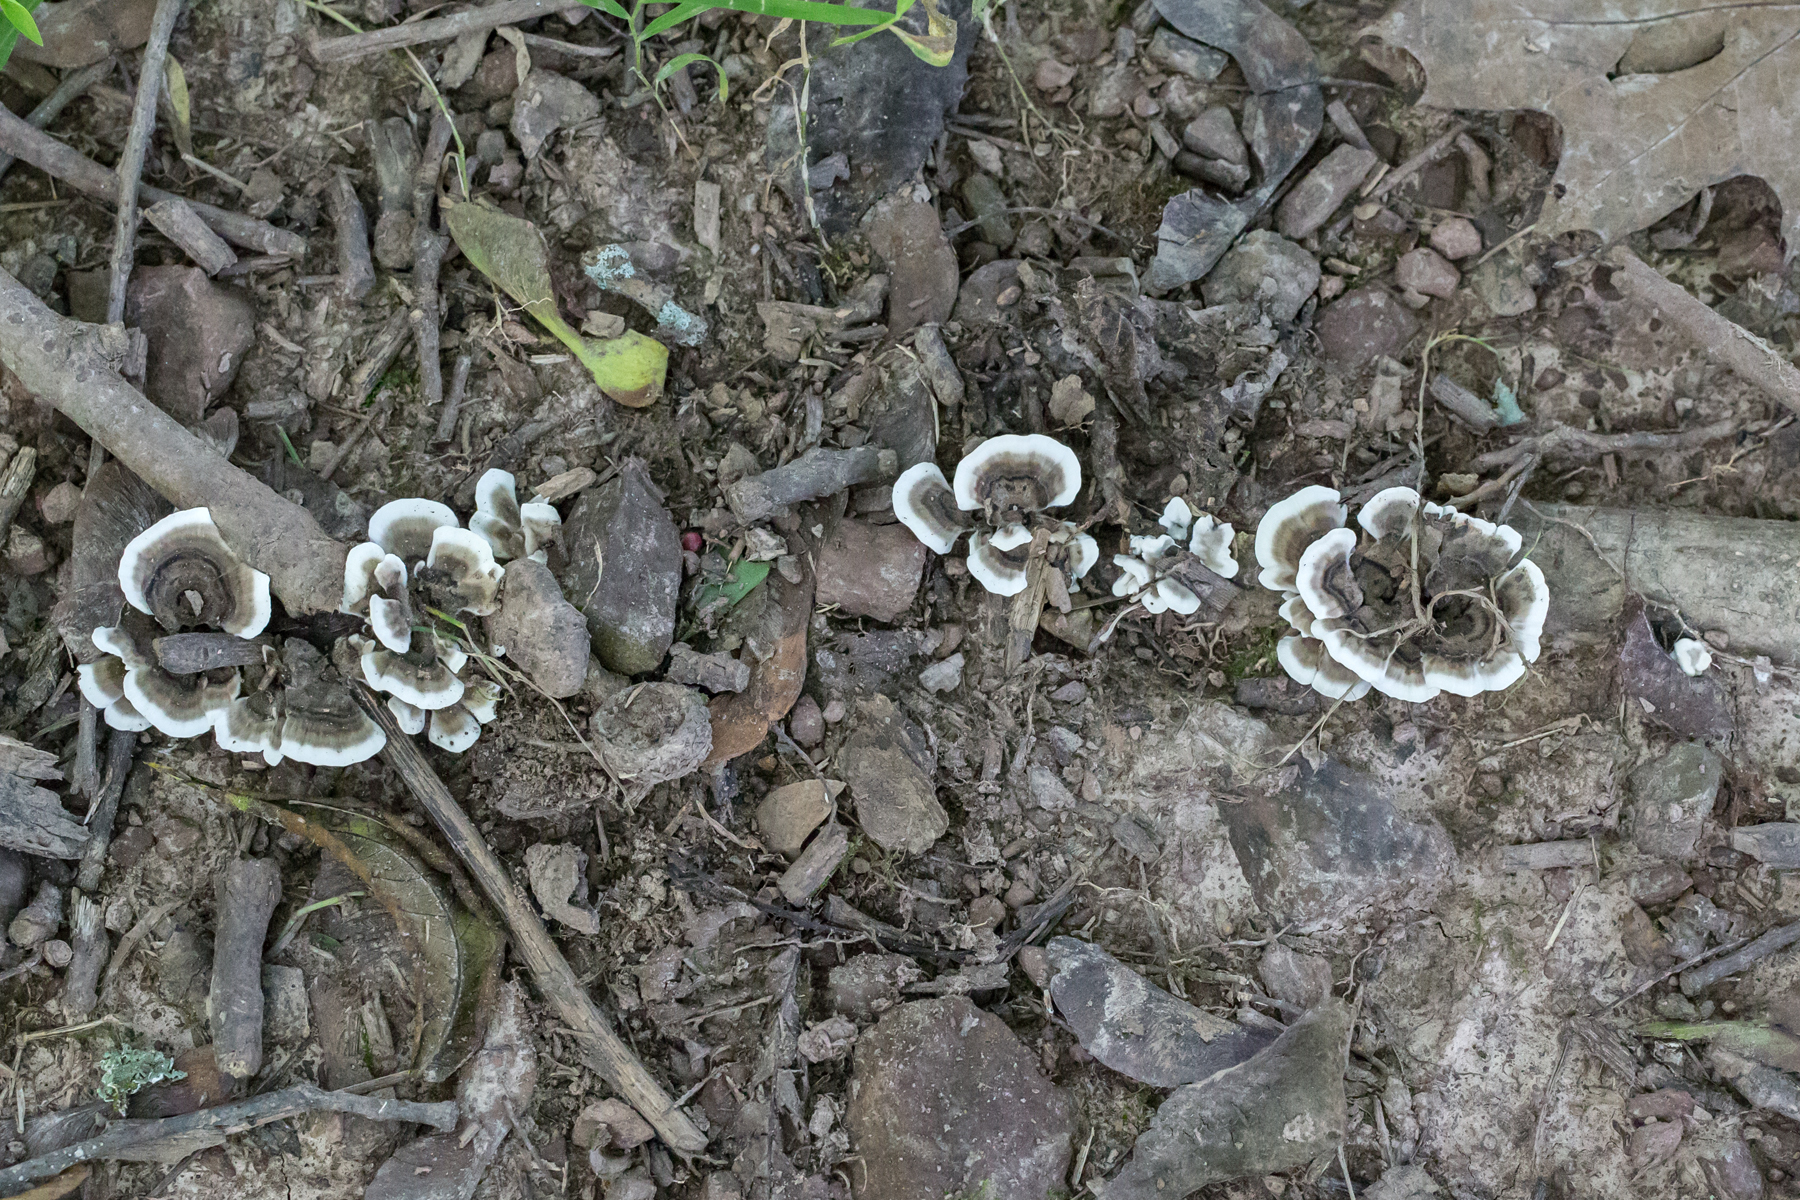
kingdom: Fungi
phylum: Basidiomycota
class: Agaricomycetes
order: Polyporales
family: Polyporaceae
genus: Trametes
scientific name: Trametes versicolor
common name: Turkeytail
